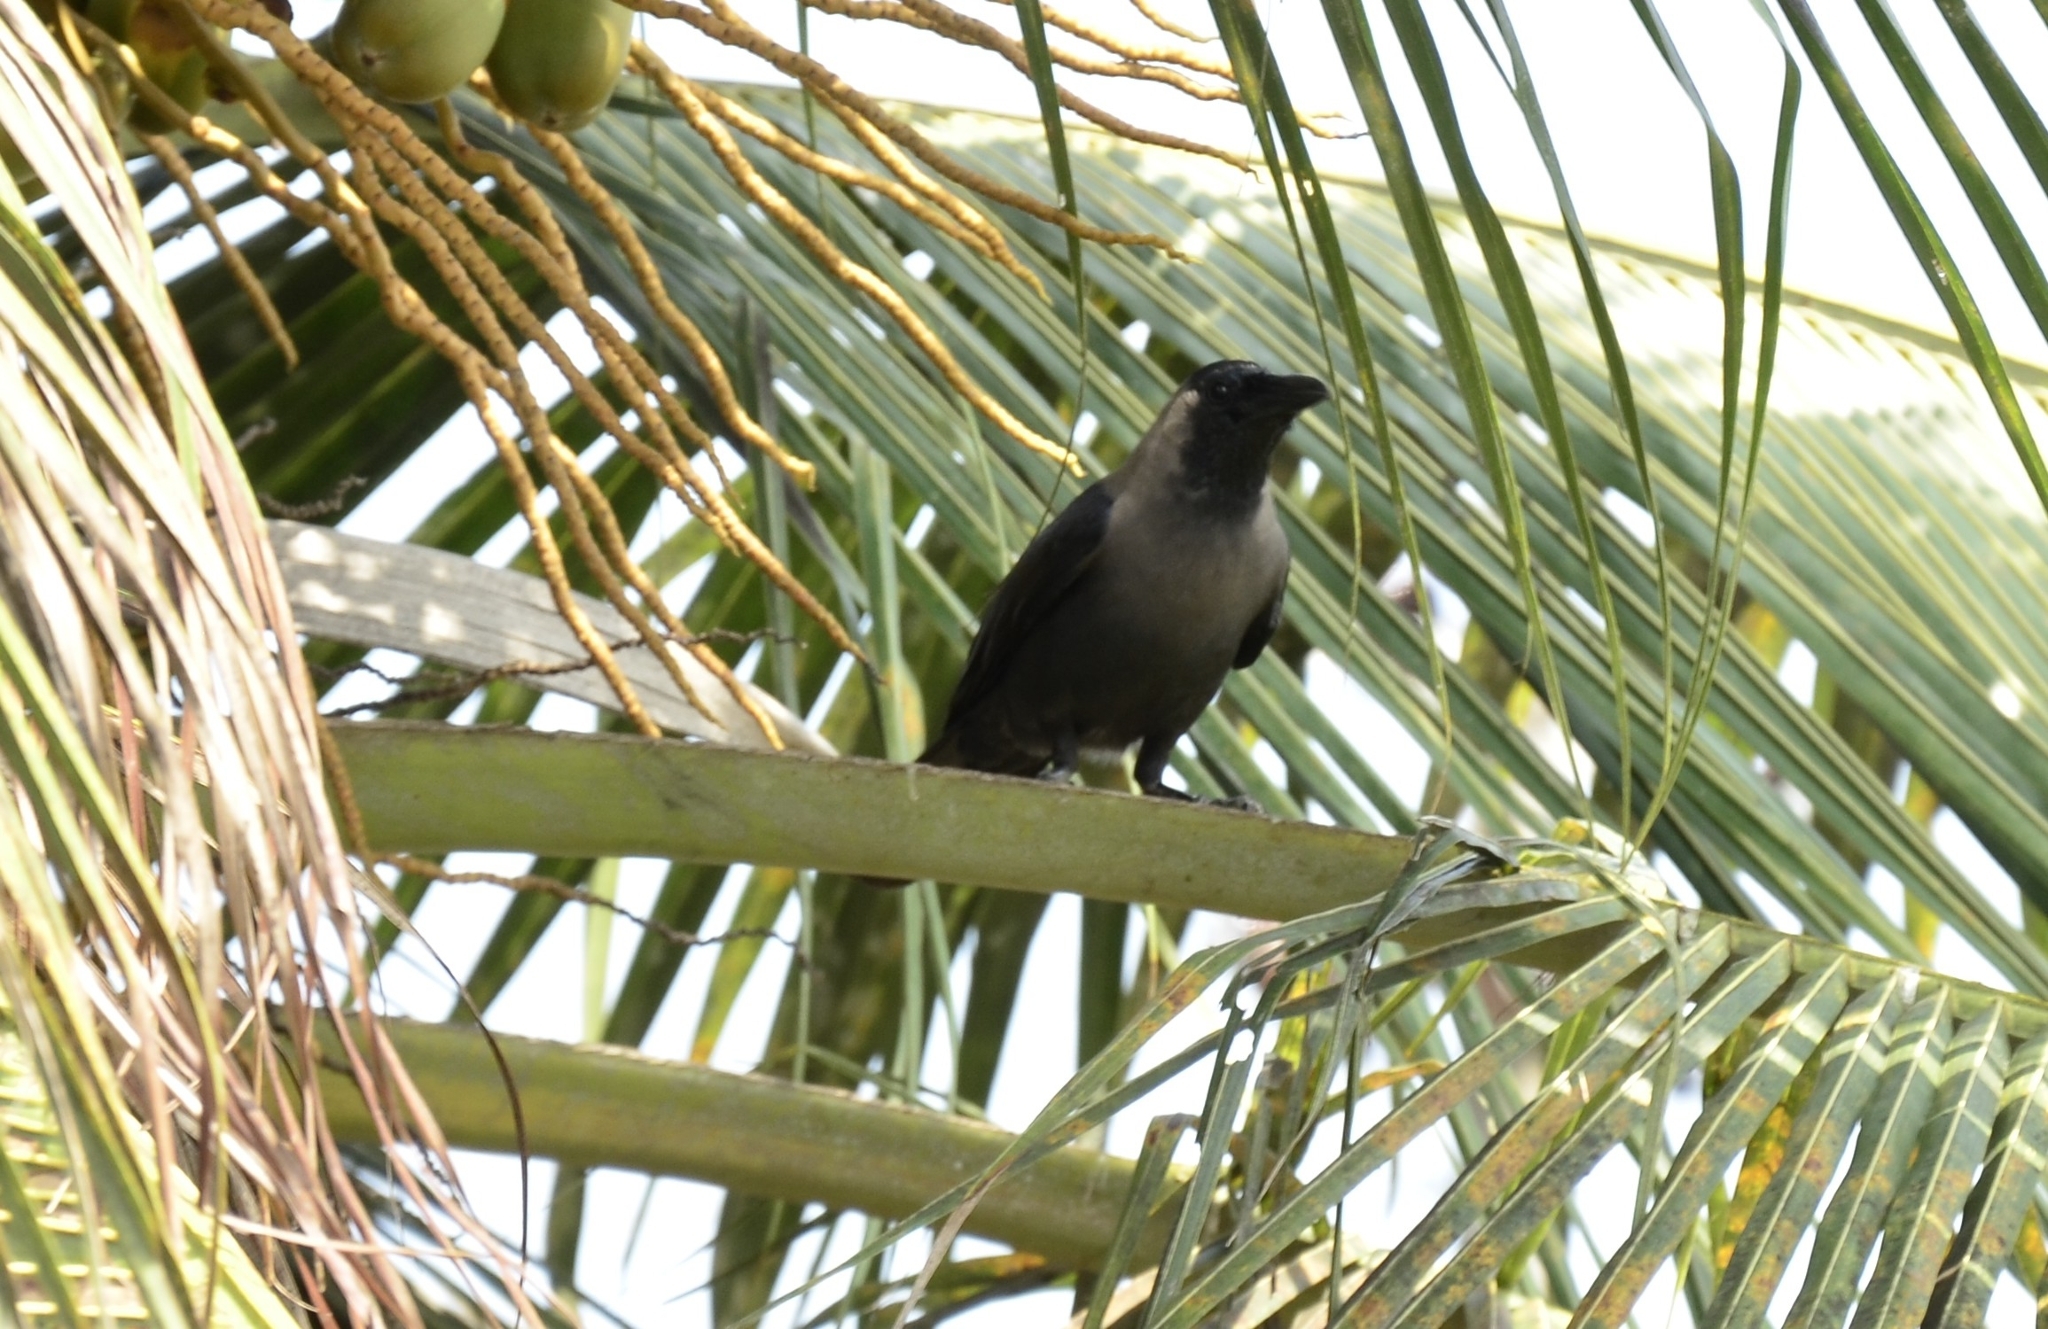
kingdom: Animalia
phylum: Chordata
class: Aves
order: Passeriformes
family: Corvidae
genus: Corvus
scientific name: Corvus splendens
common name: House crow
